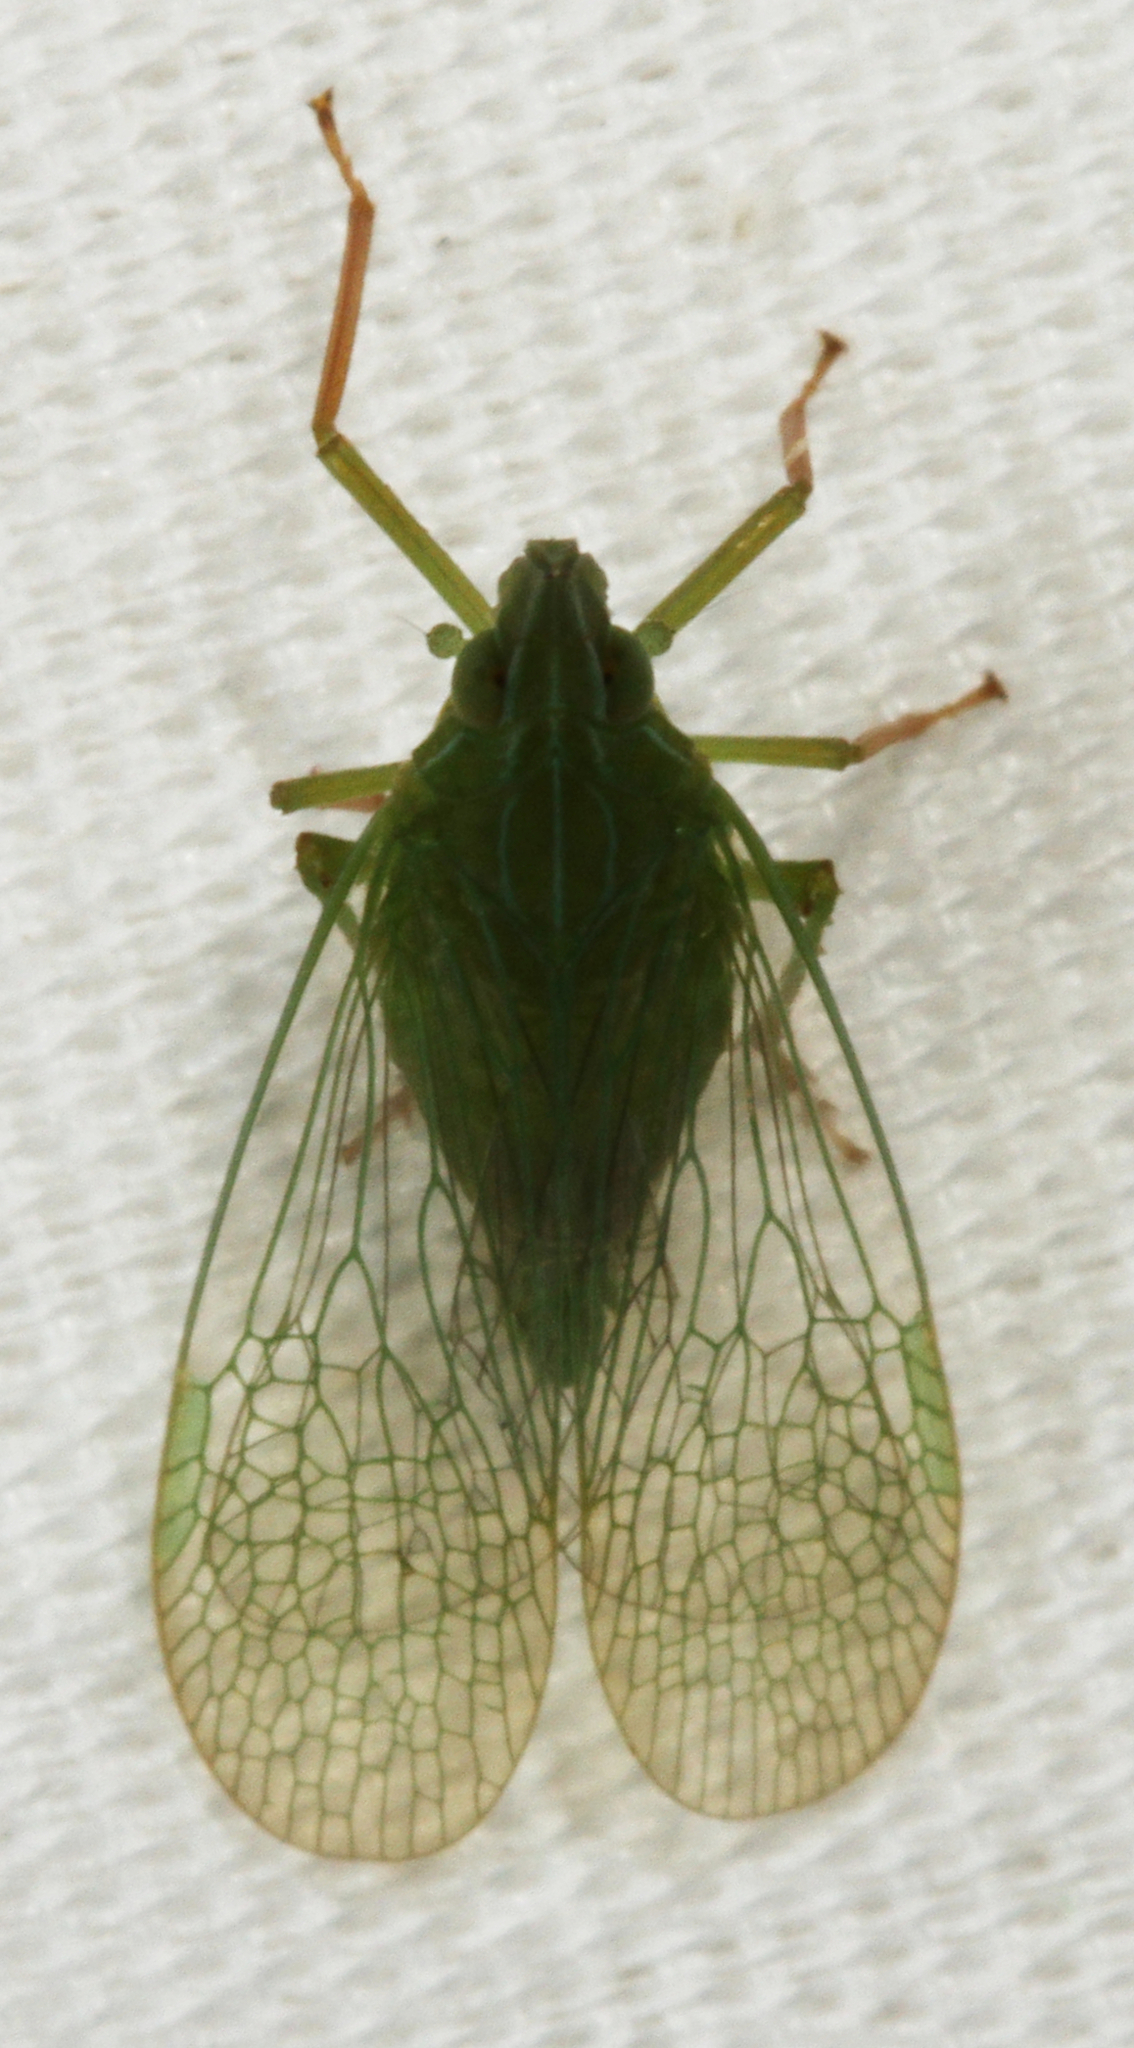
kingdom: Animalia
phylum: Arthropoda
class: Insecta
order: Hemiptera
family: Dictyopharidae
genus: Rhynchomitra
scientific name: Rhynchomitra microrhina
